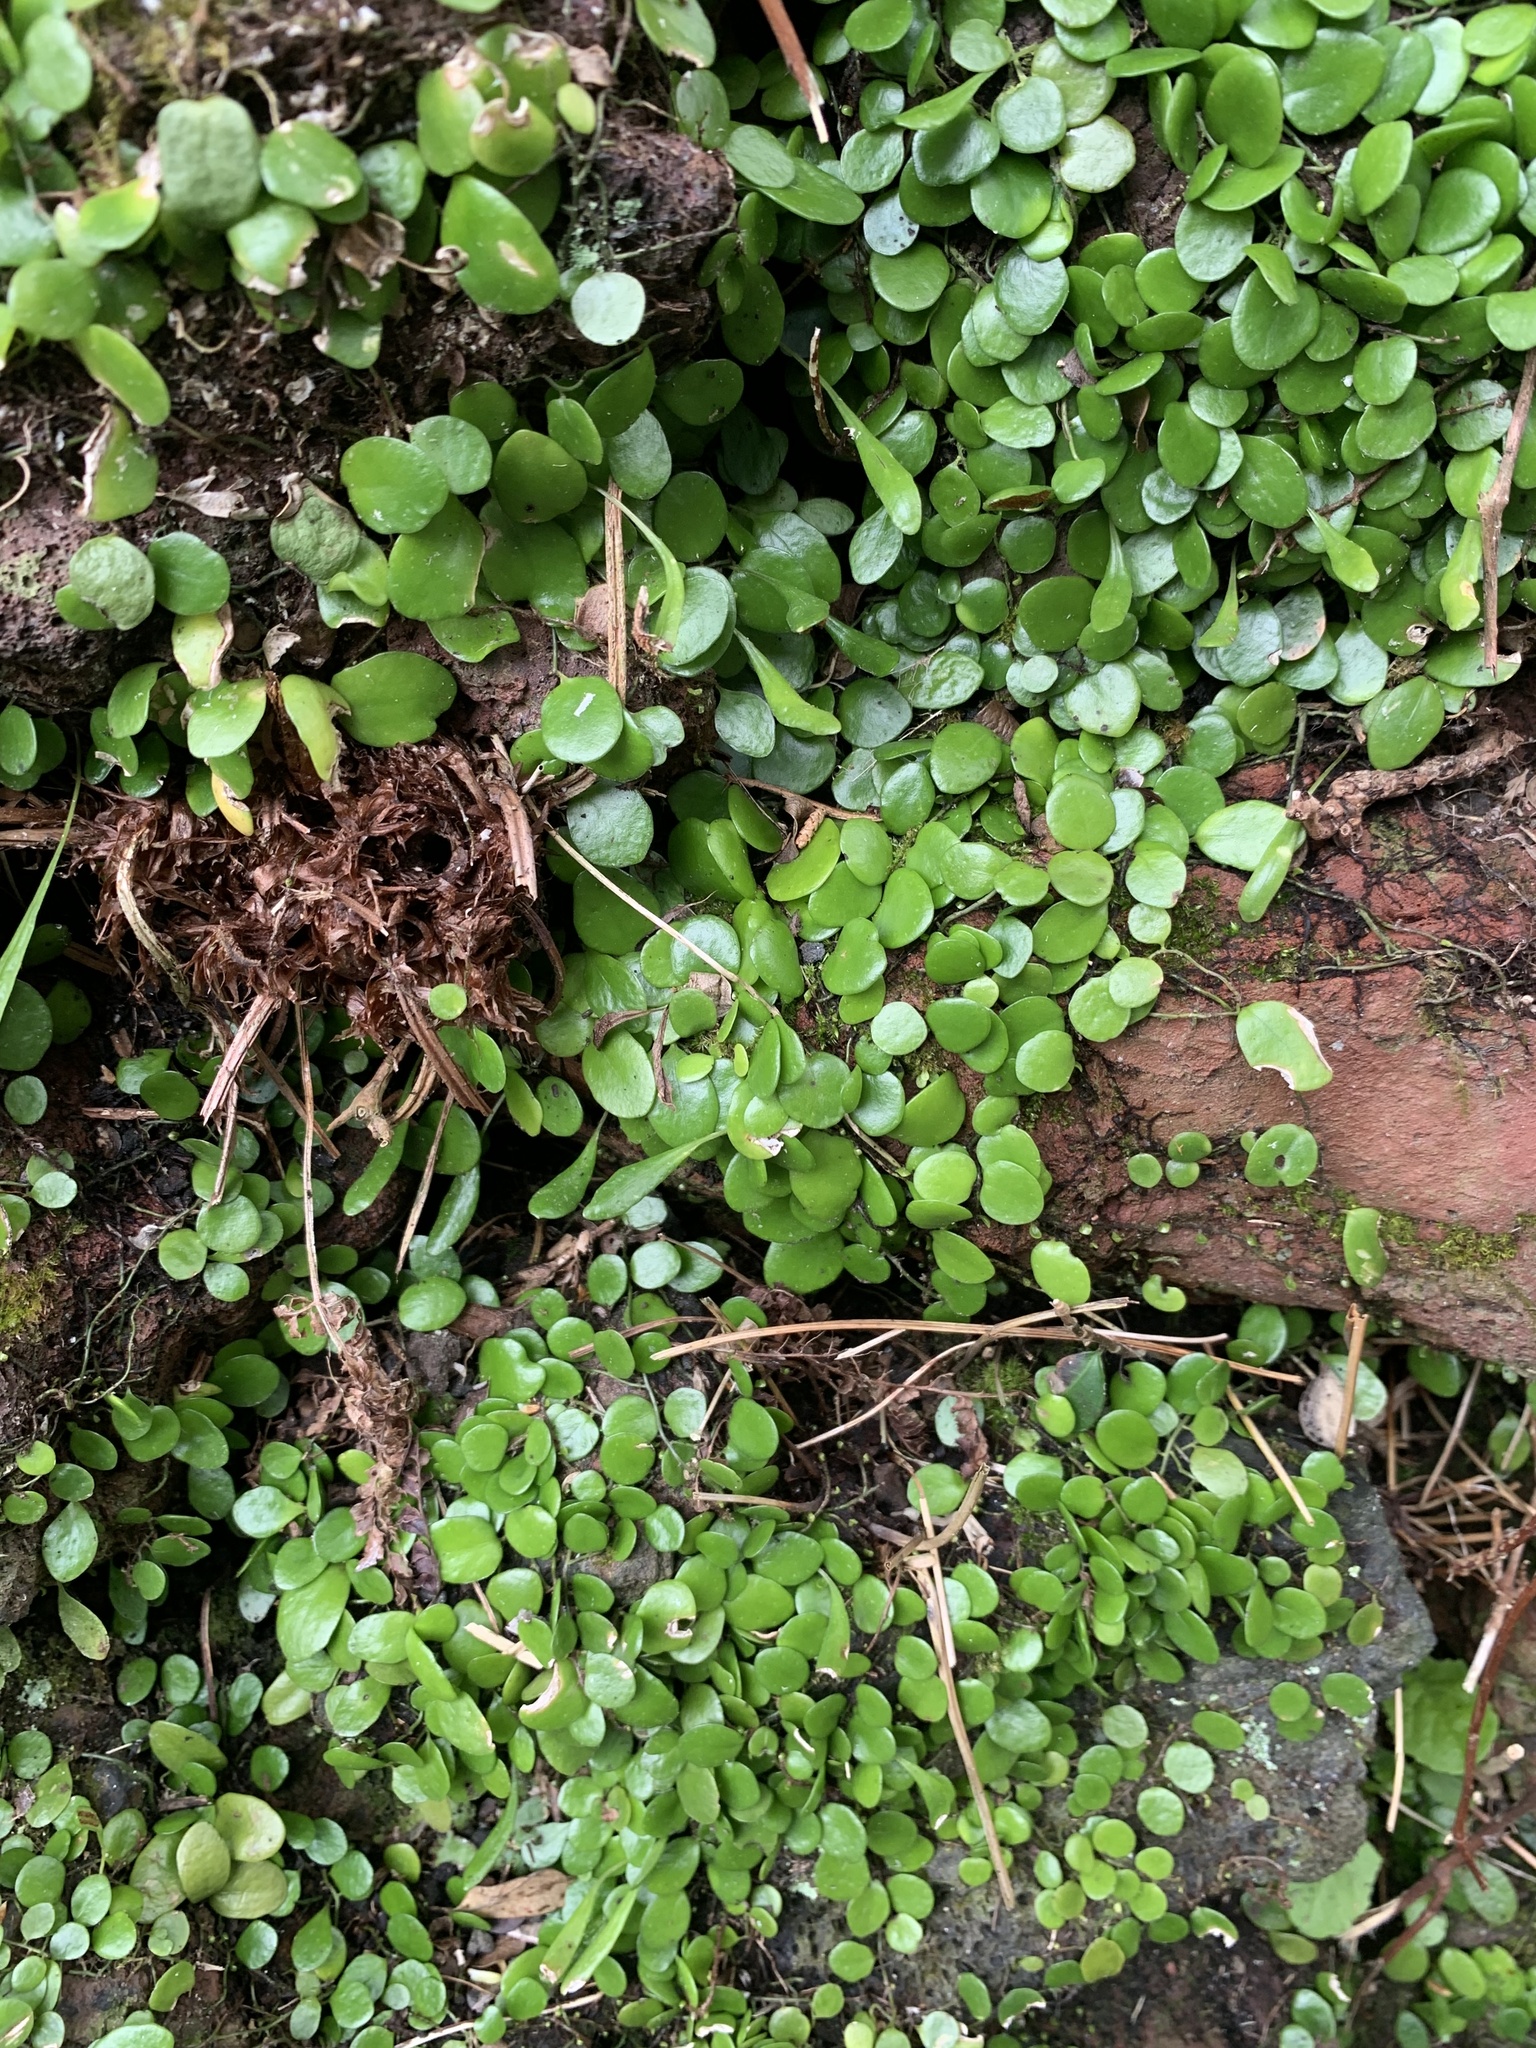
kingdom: Plantae
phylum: Tracheophyta
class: Polypodiopsida
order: Polypodiales
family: Polypodiaceae
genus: Lepisorus
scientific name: Lepisorus microphyllus
